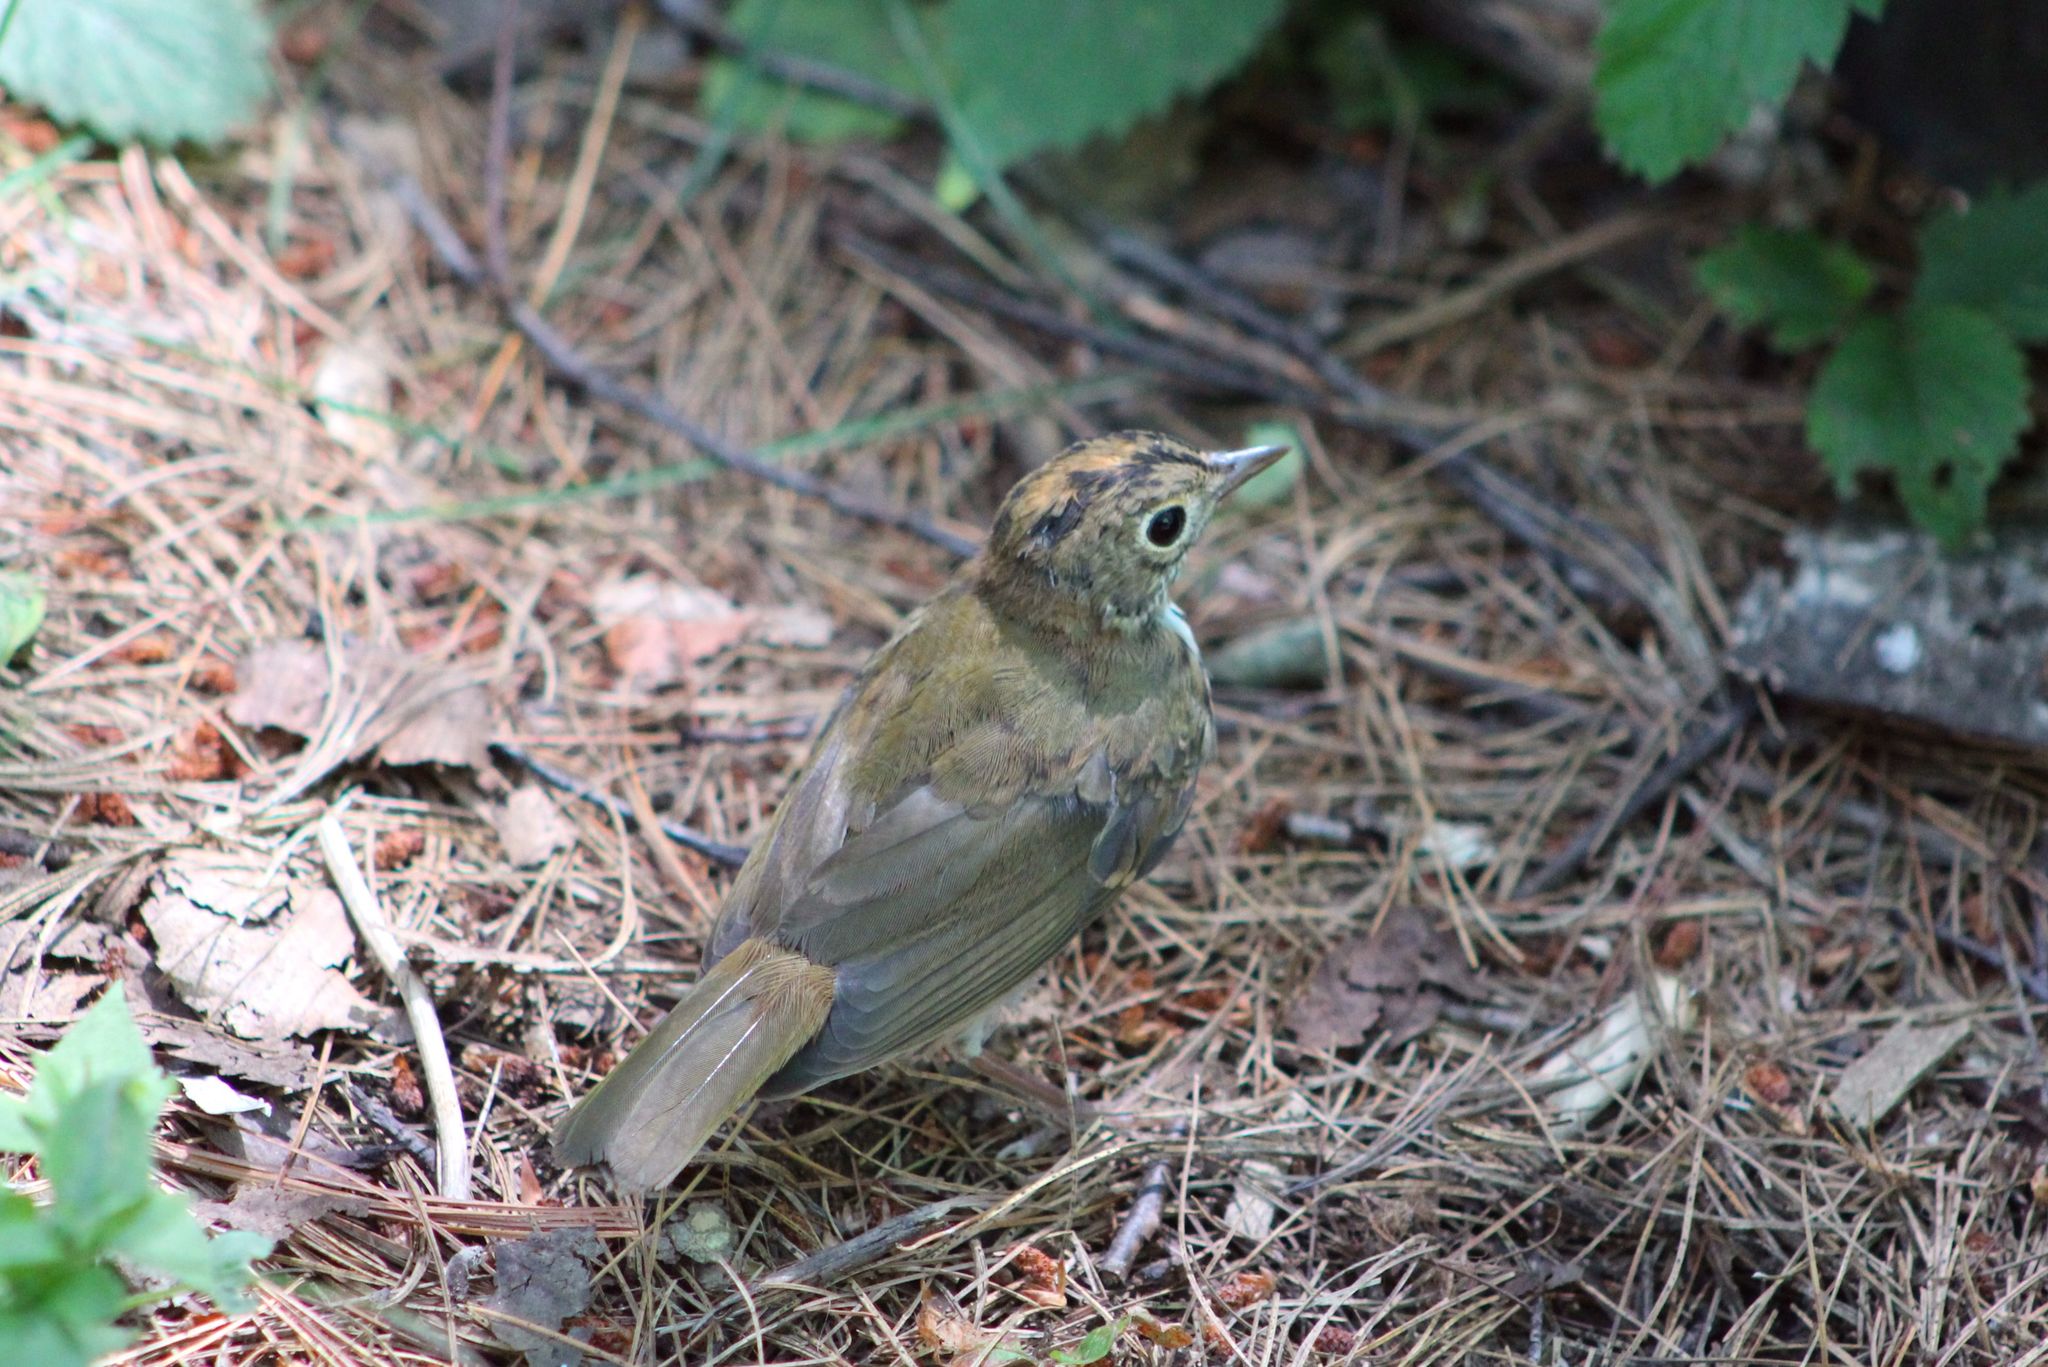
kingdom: Animalia
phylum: Chordata
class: Aves
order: Passeriformes
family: Parulidae
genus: Seiurus
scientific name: Seiurus aurocapilla
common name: Ovenbird
